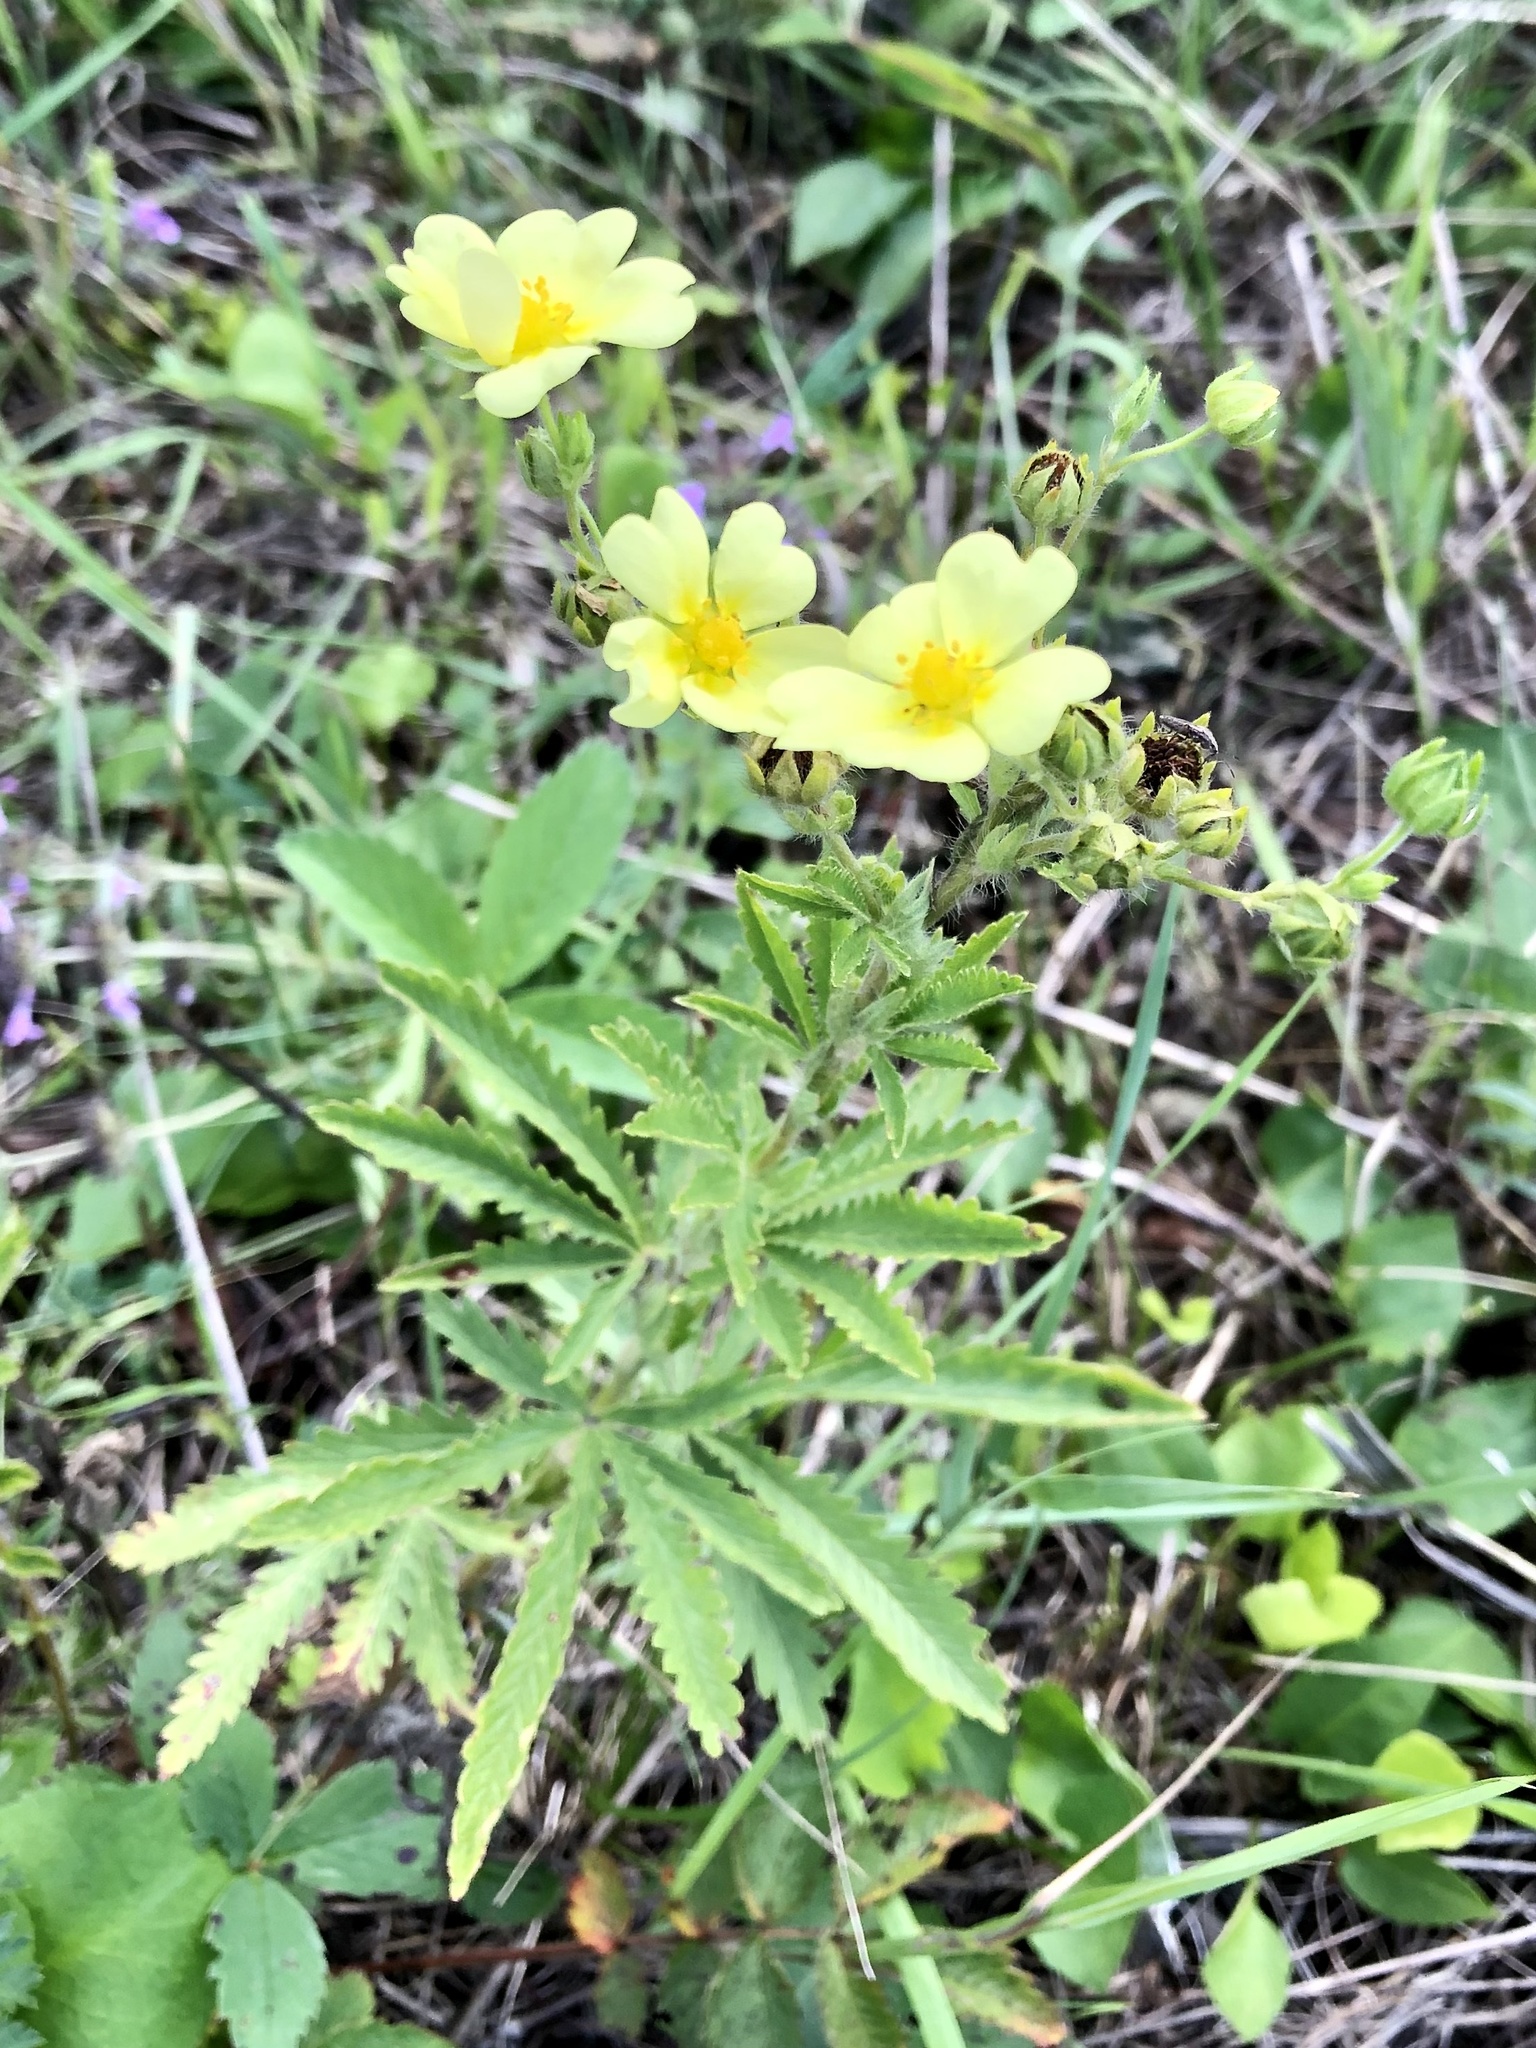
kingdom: Plantae
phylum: Tracheophyta
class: Magnoliopsida
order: Rosales
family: Rosaceae
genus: Potentilla
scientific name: Potentilla recta
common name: Sulphur cinquefoil
